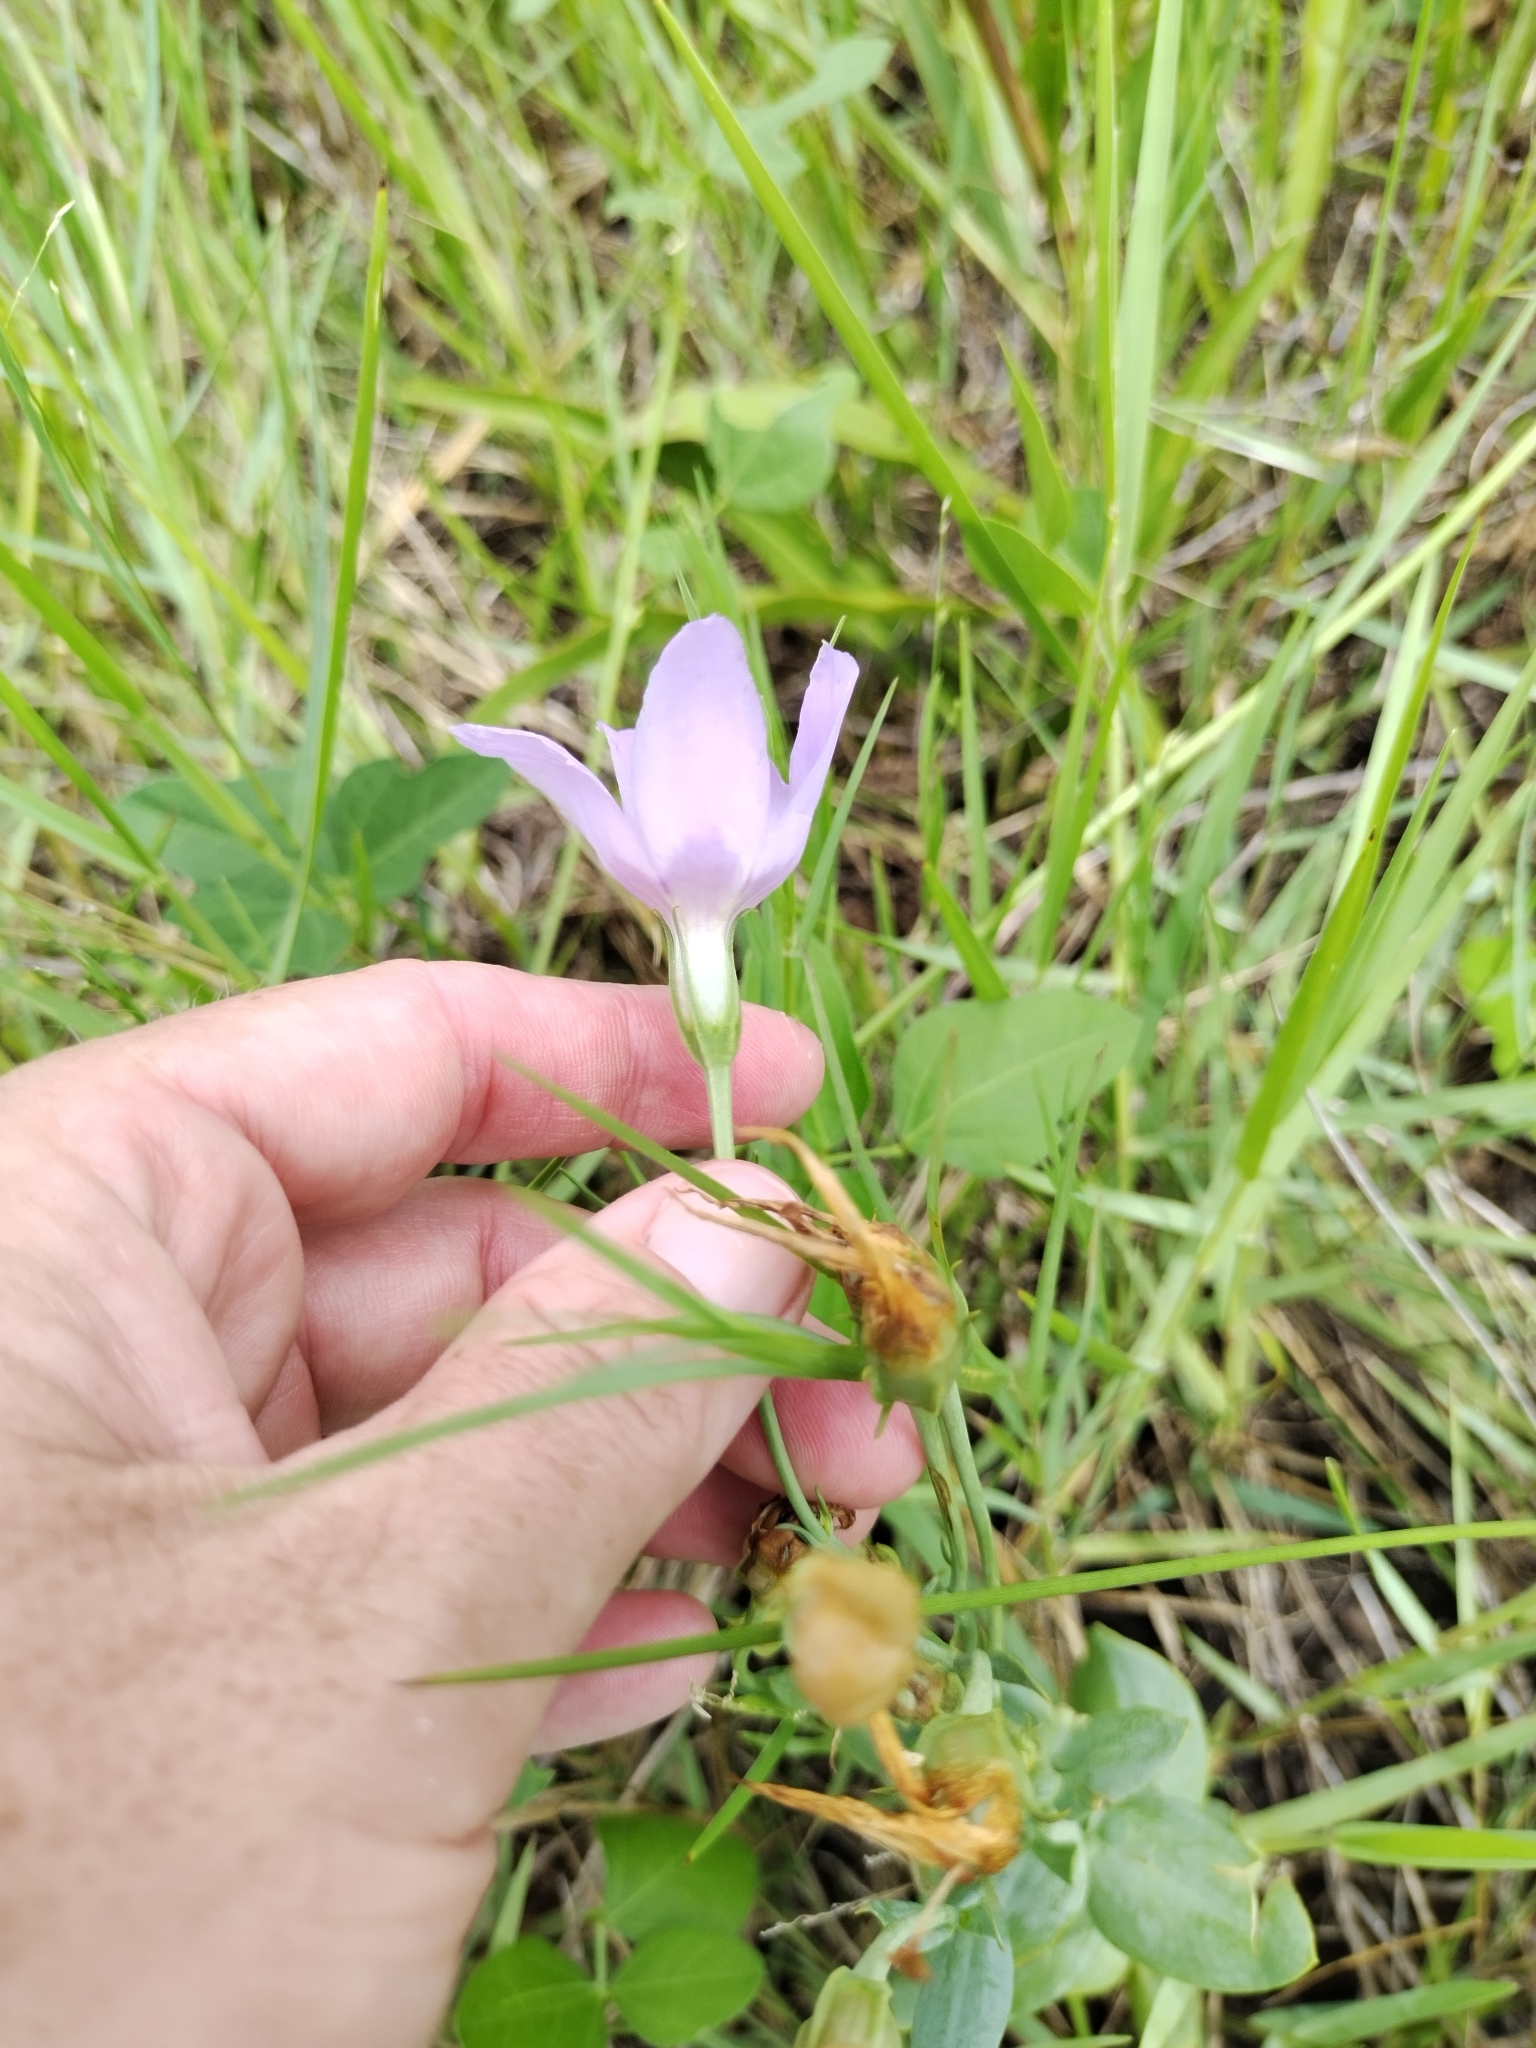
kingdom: Plantae
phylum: Tracheophyta
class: Magnoliopsida
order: Gentianales
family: Gentianaceae
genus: Eustoma
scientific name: Eustoma exaltatum
